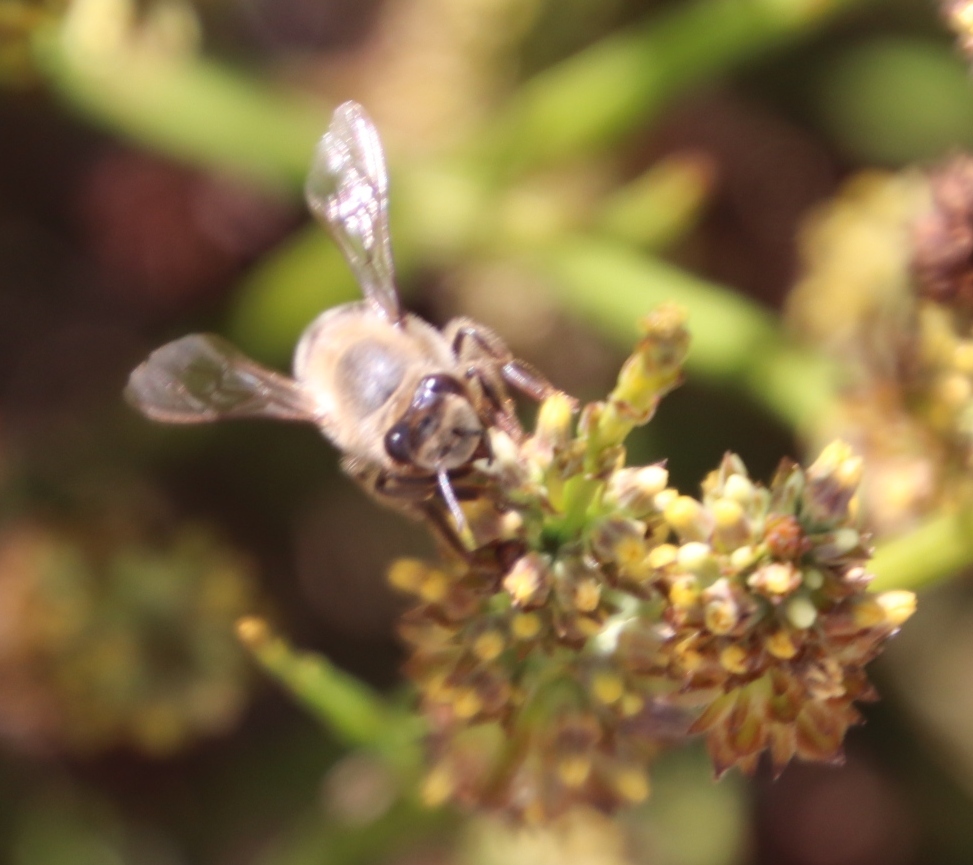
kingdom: Animalia
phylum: Arthropoda
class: Insecta
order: Hymenoptera
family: Apidae
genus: Apis
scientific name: Apis mellifera
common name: Honey bee
